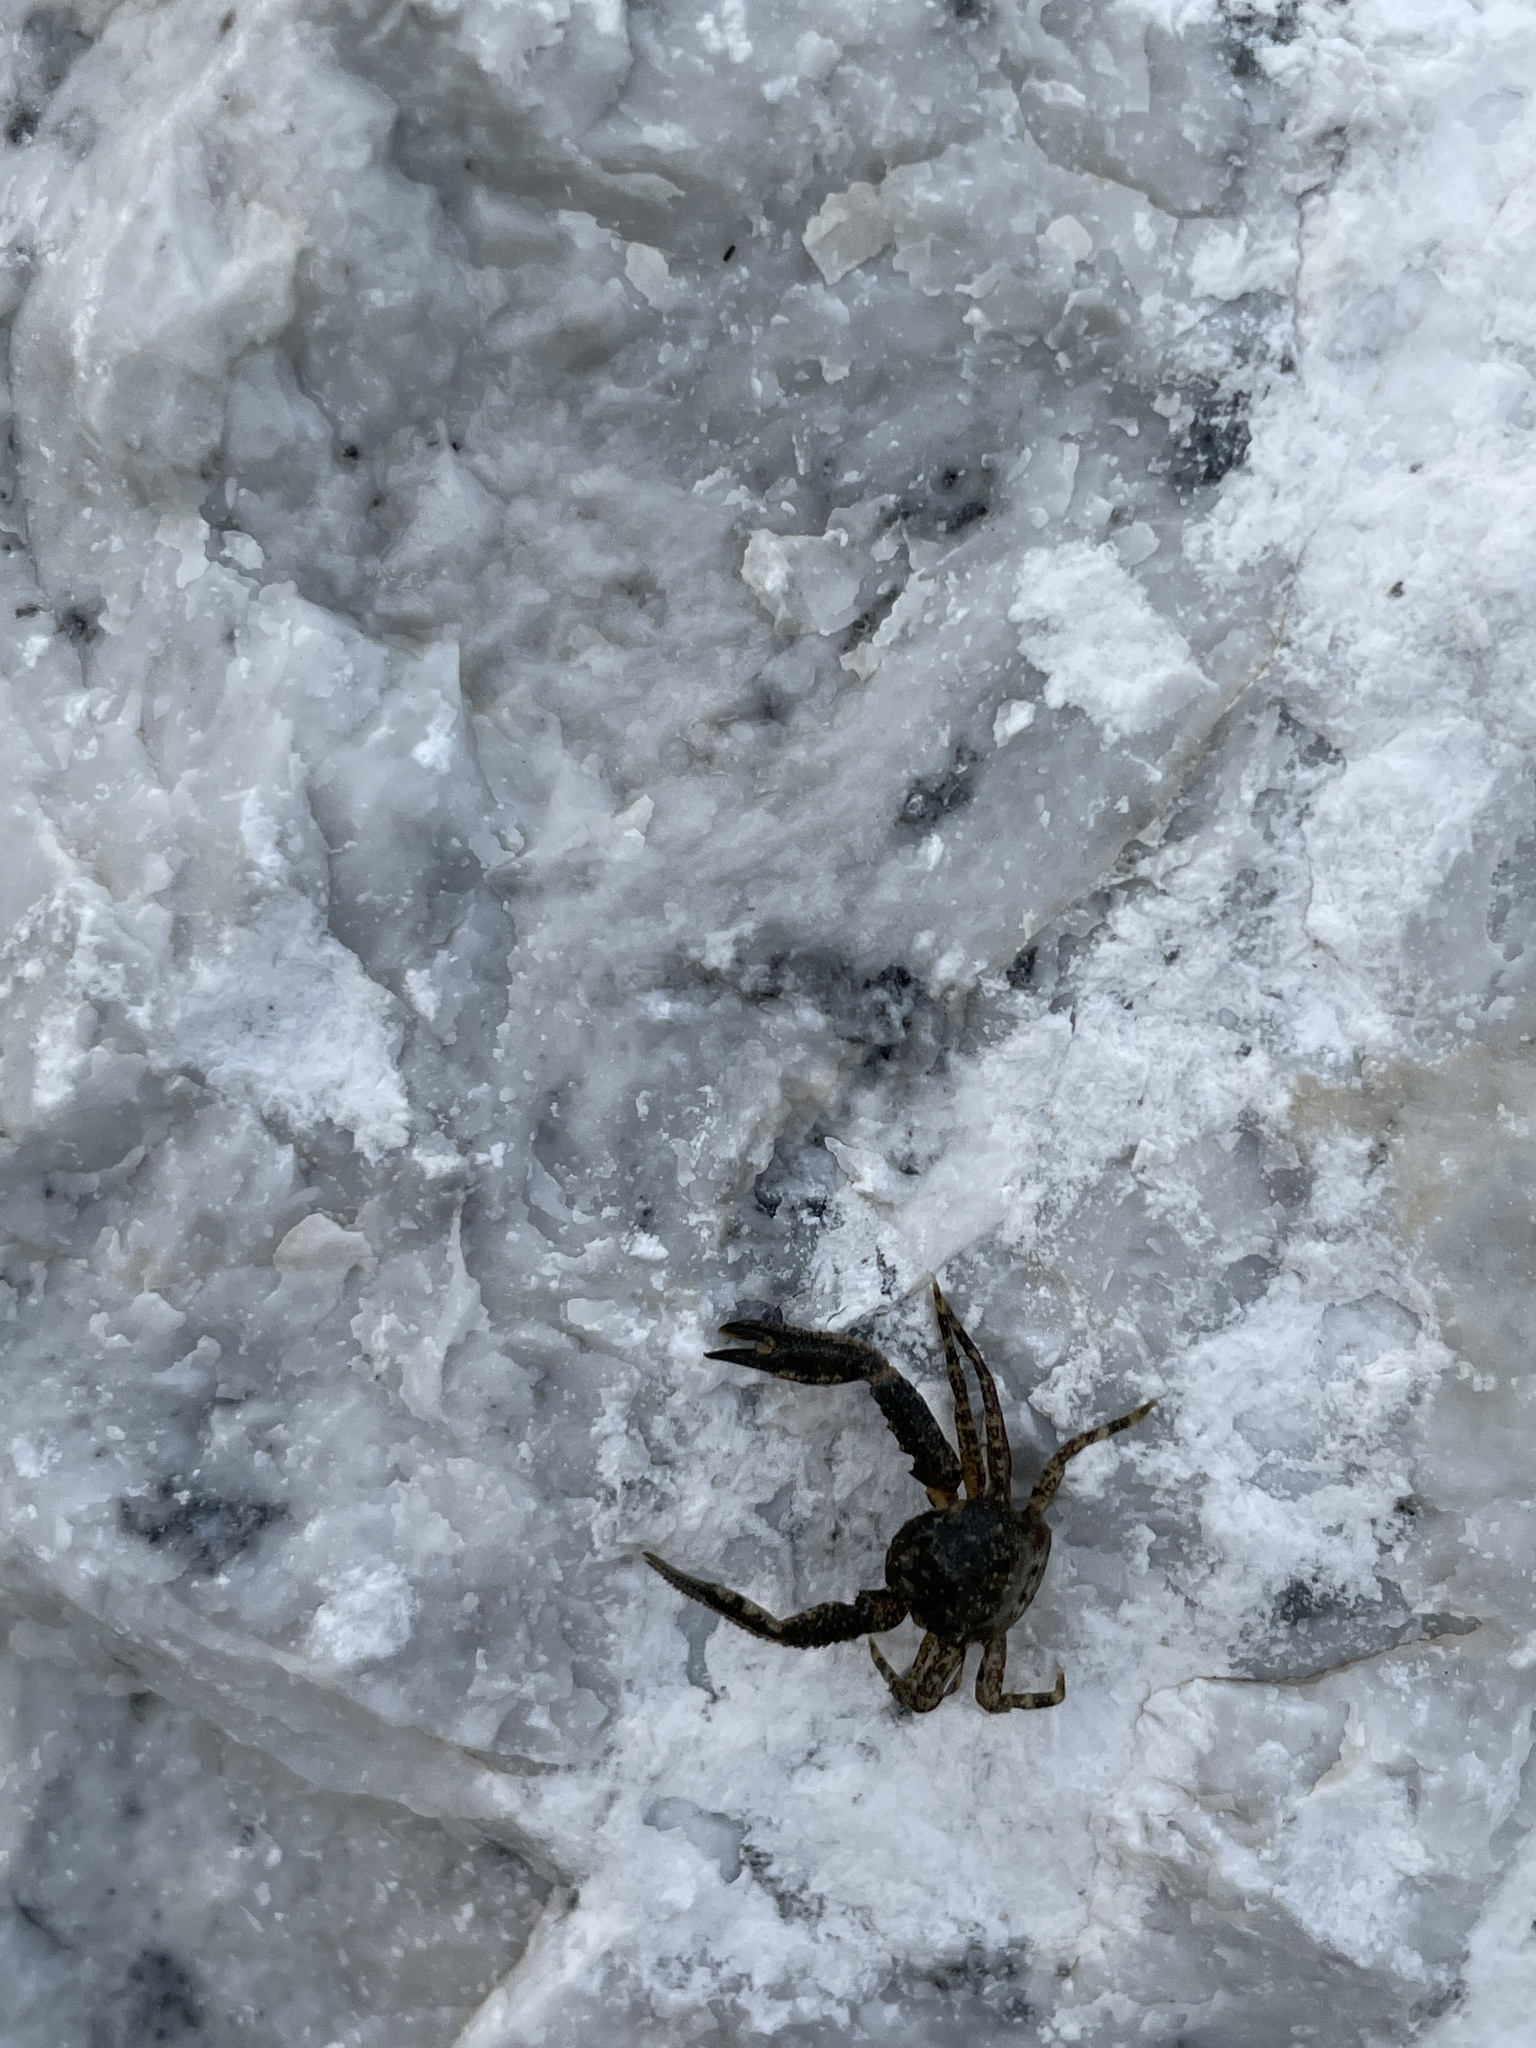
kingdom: Animalia
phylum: Arthropoda
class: Malacostraca
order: Decapoda
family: Porcellanidae
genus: Pisidia
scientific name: Pisidia bluteli
